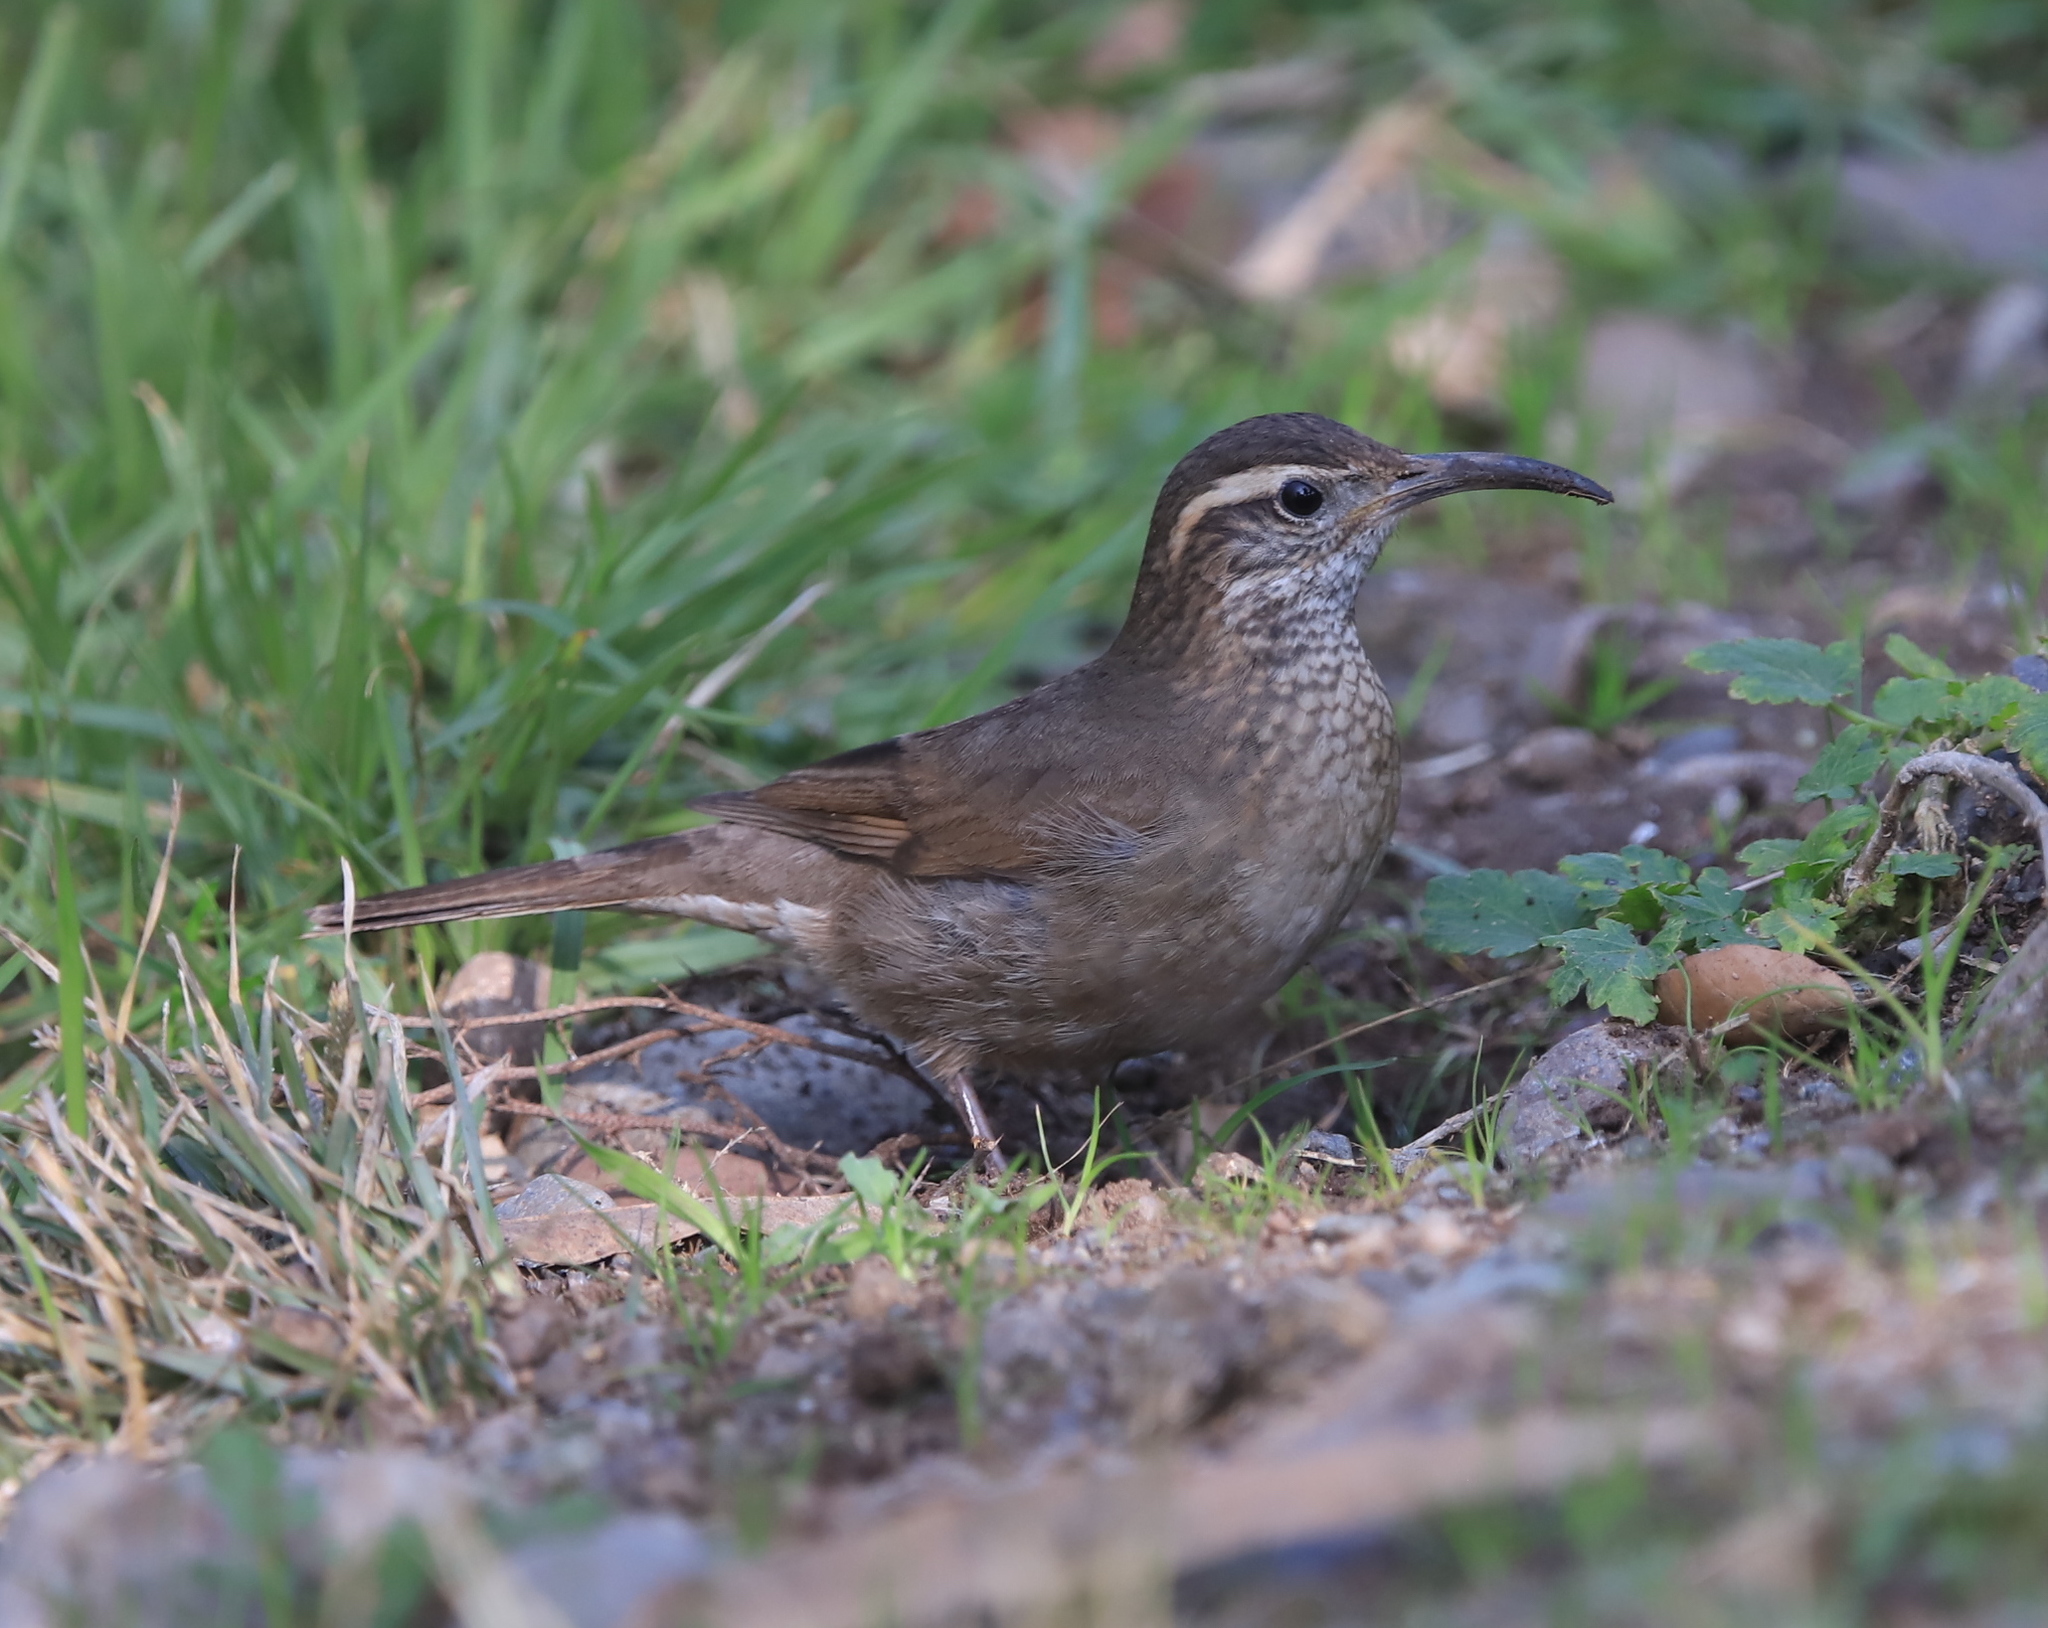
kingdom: Animalia
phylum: Chordata
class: Aves
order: Passeriformes
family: Furnariidae
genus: Upucerthia
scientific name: Upucerthia saturatior
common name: Patagonian forest earthcreeper
